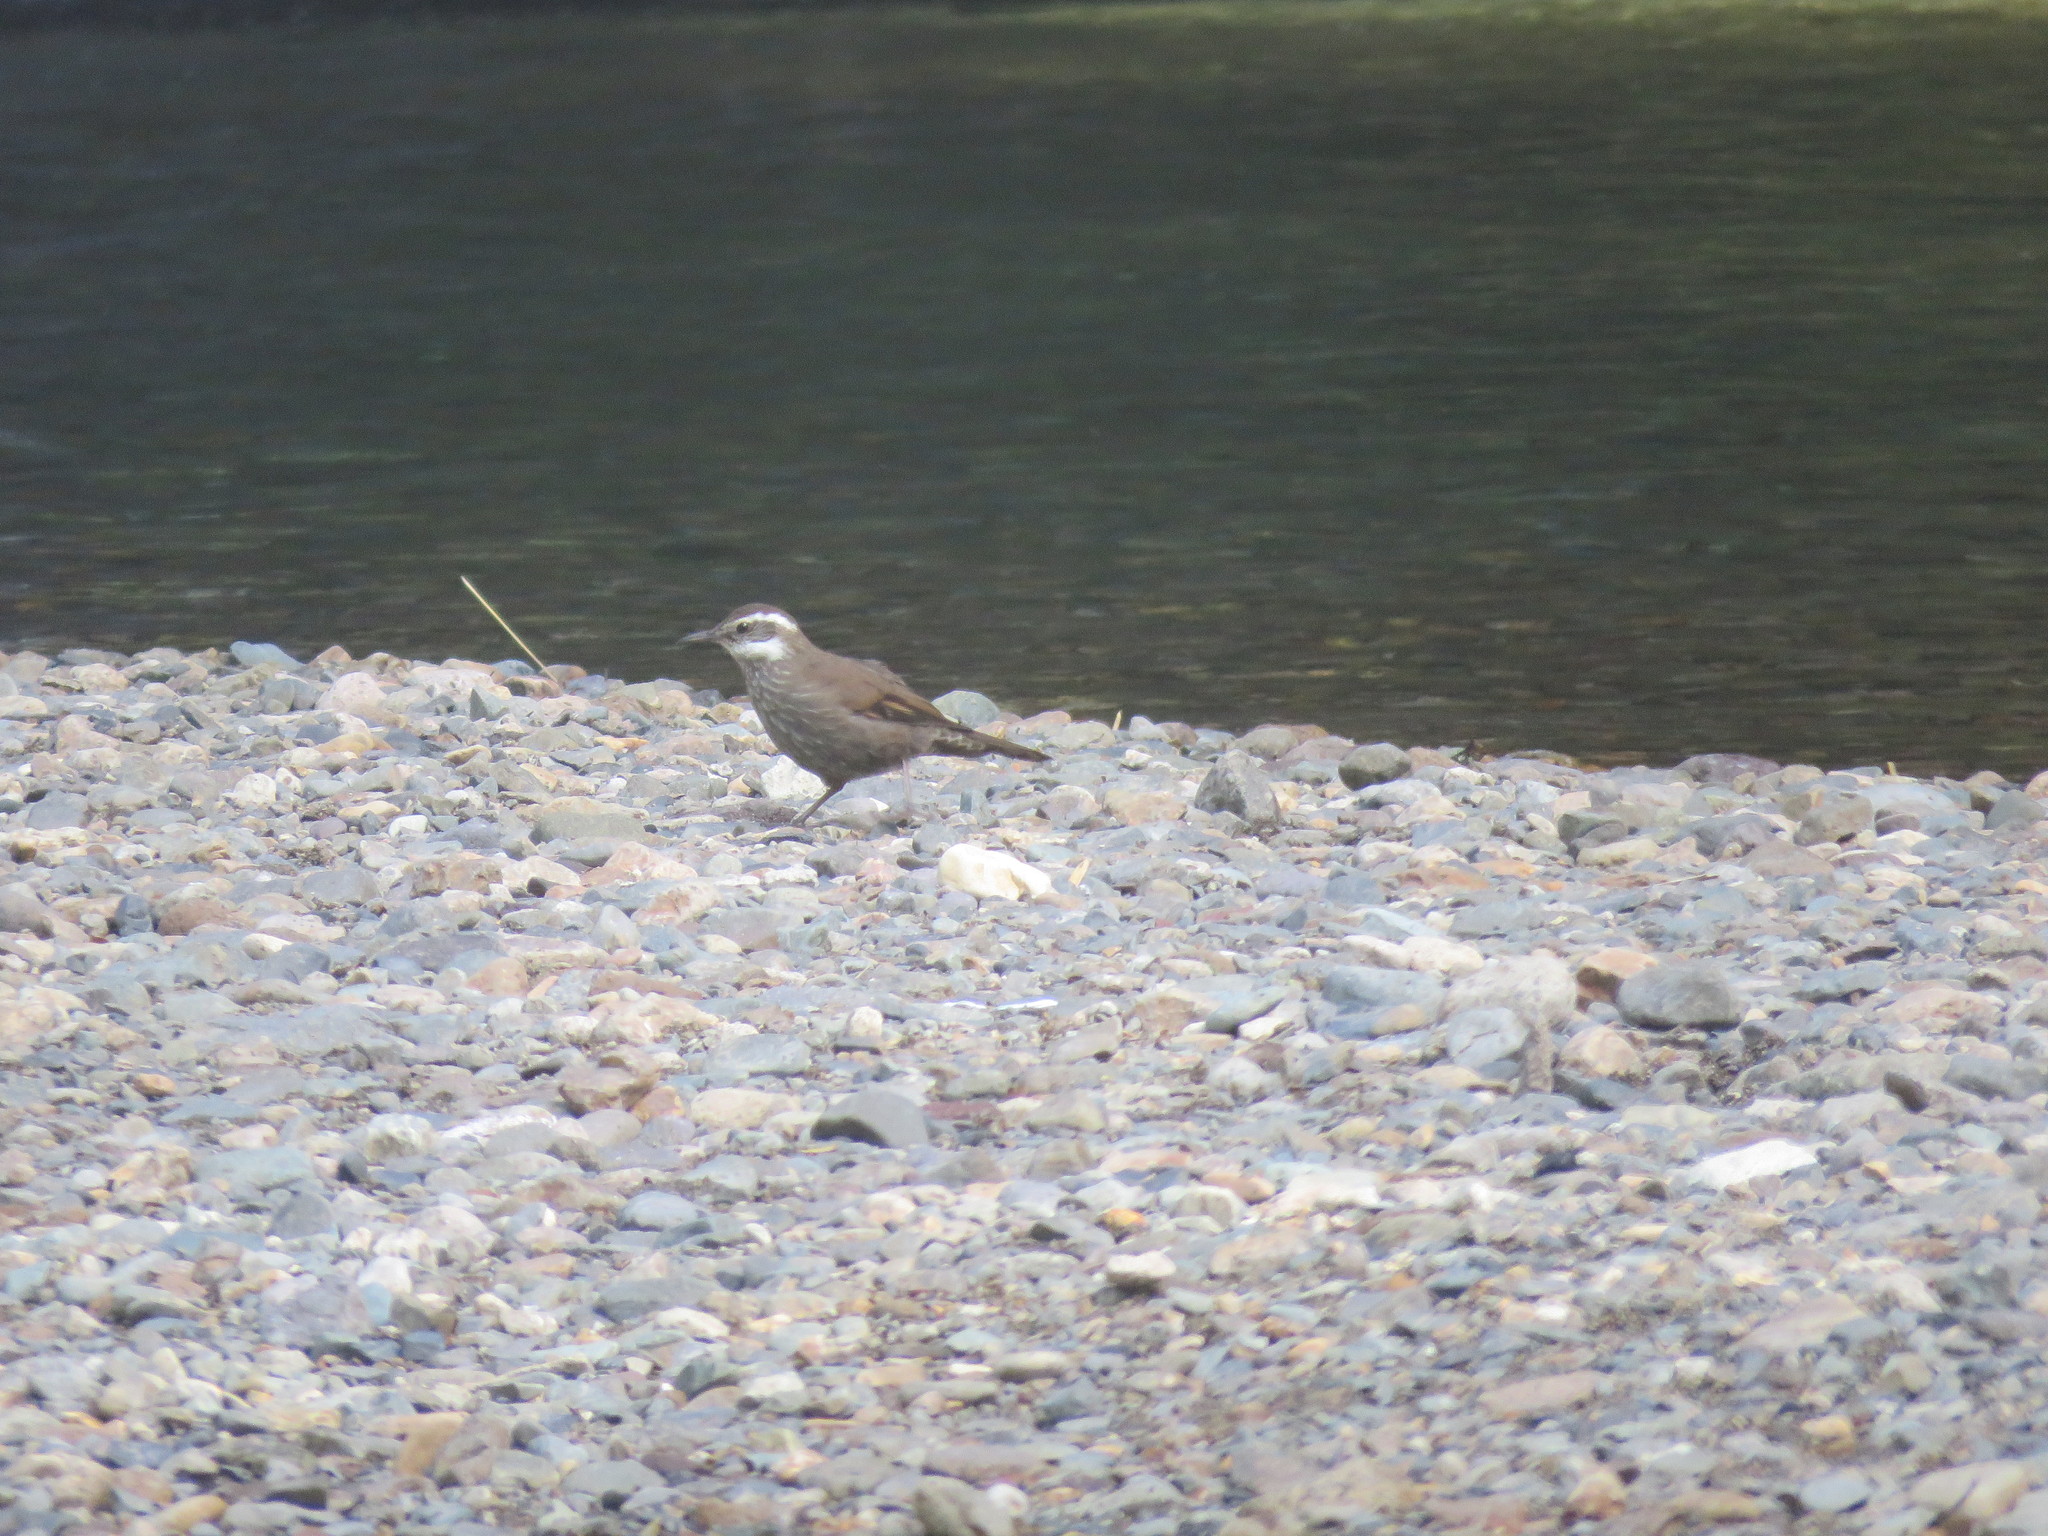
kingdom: Animalia
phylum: Chordata
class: Aves
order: Passeriformes
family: Furnariidae
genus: Cinclodes
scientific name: Cinclodes fuscus
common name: Buff-winged cinclodes
